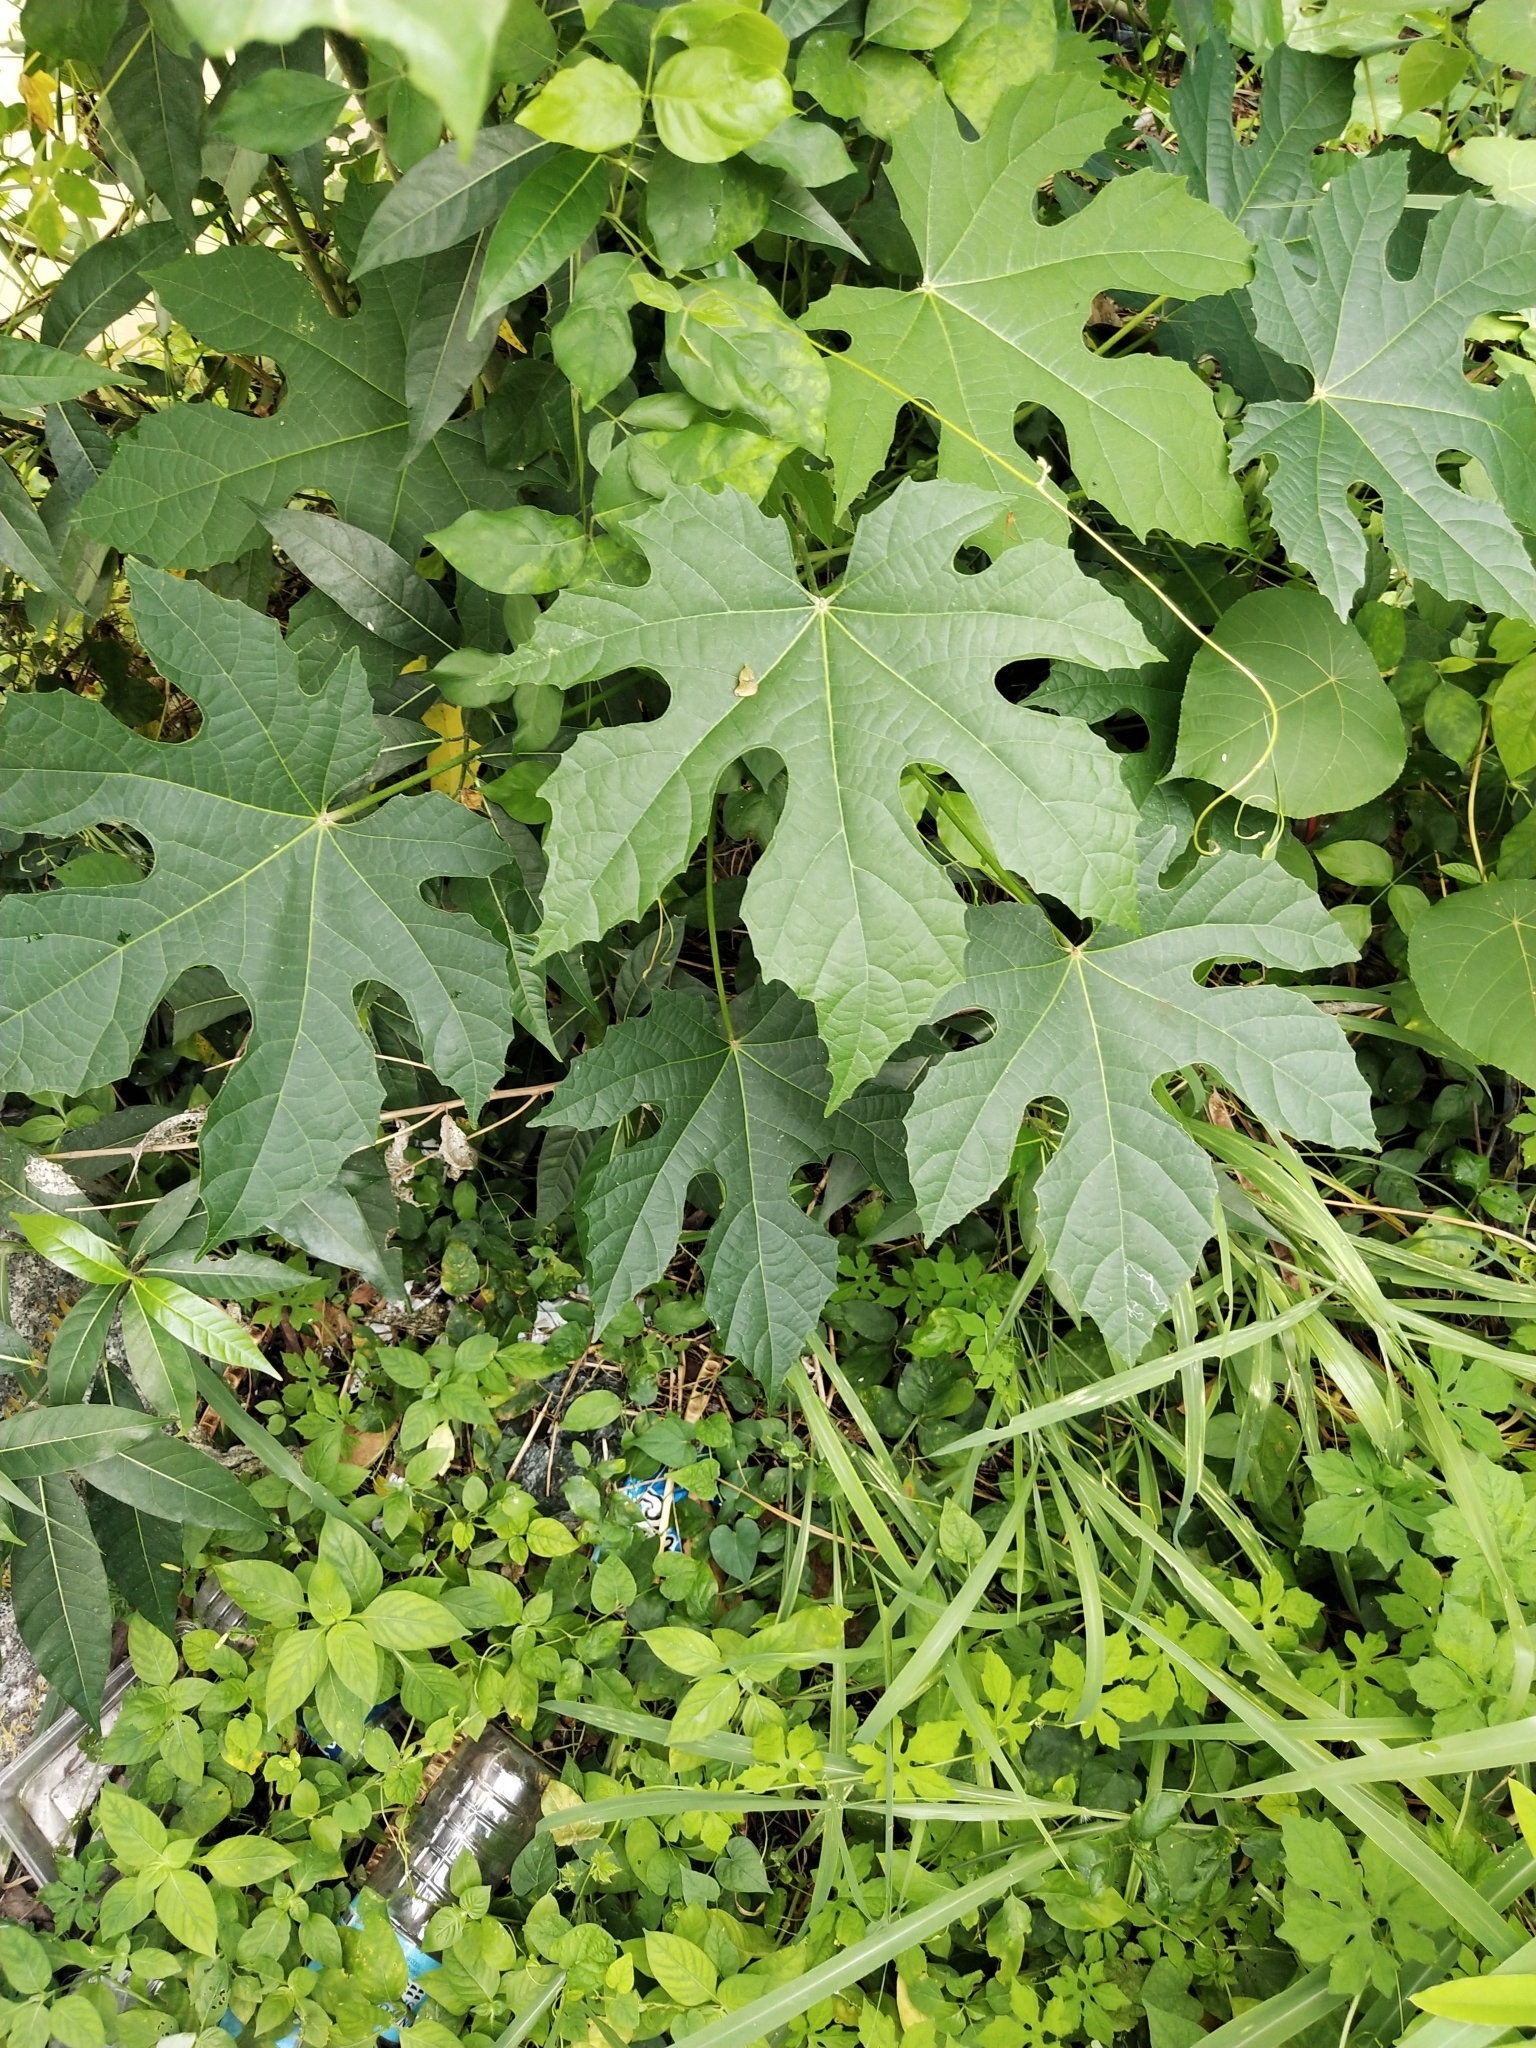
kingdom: Plantae
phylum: Tracheophyta
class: Magnoliopsida
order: Malpighiales
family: Euphorbiaceae
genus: Melanolepis
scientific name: Melanolepis multiglandulosa
